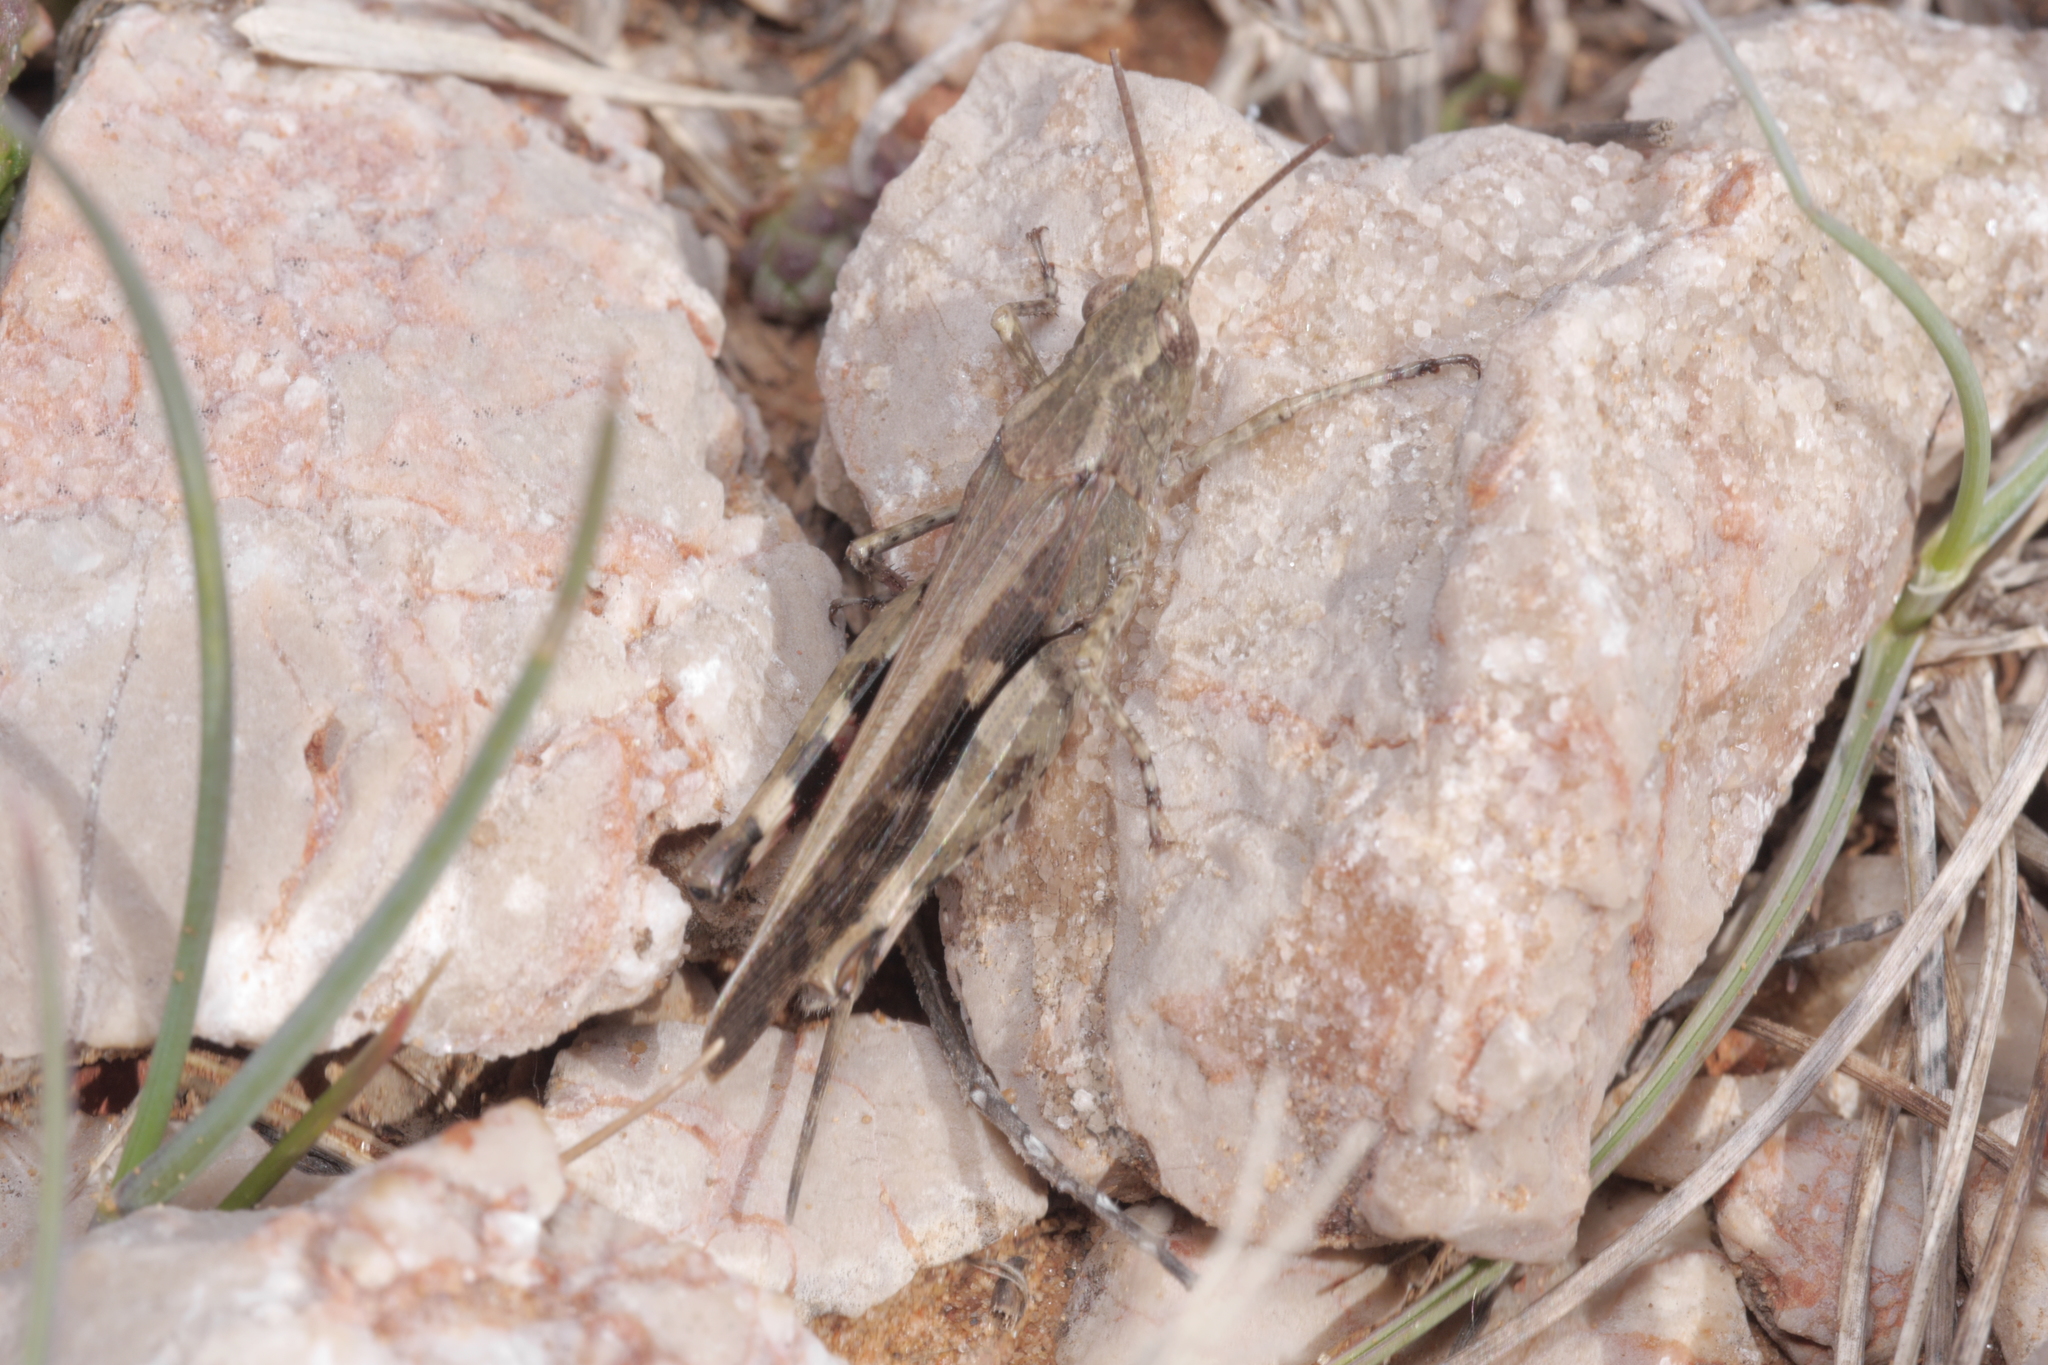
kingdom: Animalia
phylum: Arthropoda
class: Insecta
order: Orthoptera
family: Acrididae
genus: Aiolopus
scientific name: Aiolopus strepens
